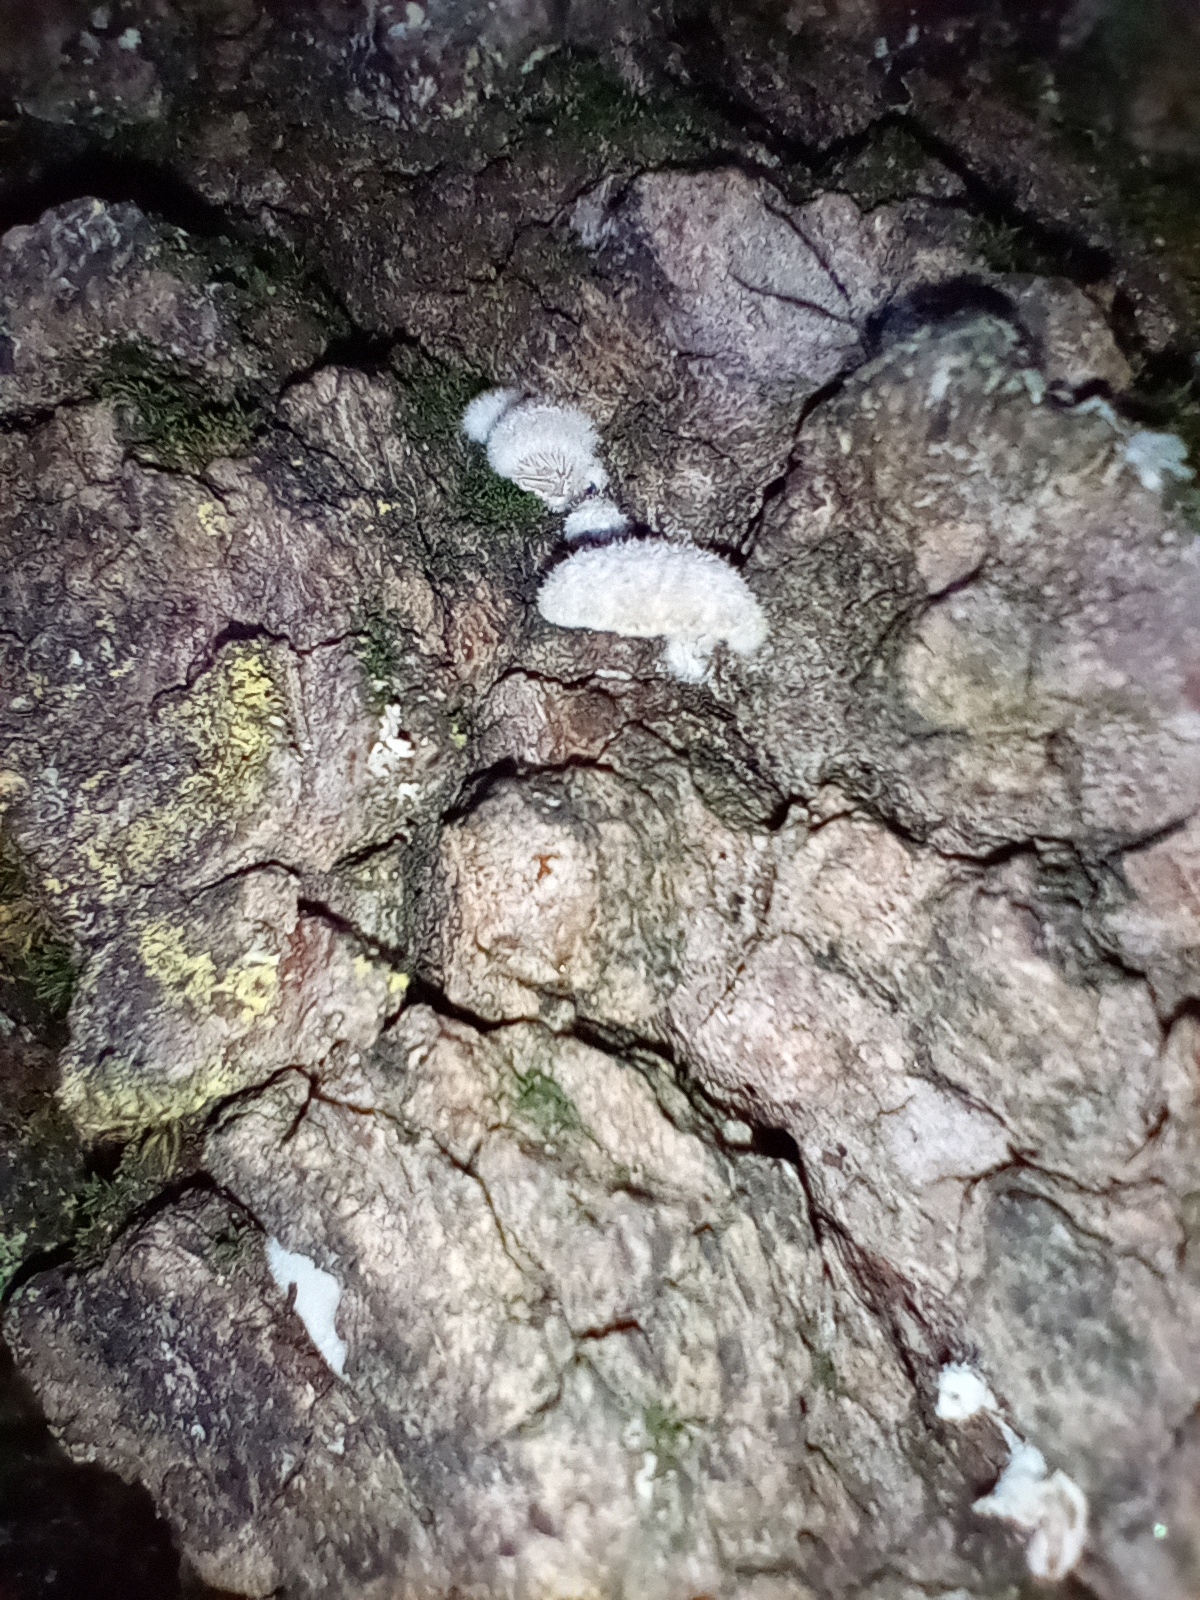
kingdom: Fungi
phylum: Basidiomycota
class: Agaricomycetes
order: Agaricales
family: Schizophyllaceae
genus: Schizophyllum
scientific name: Schizophyllum commune
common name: Common porecrust
